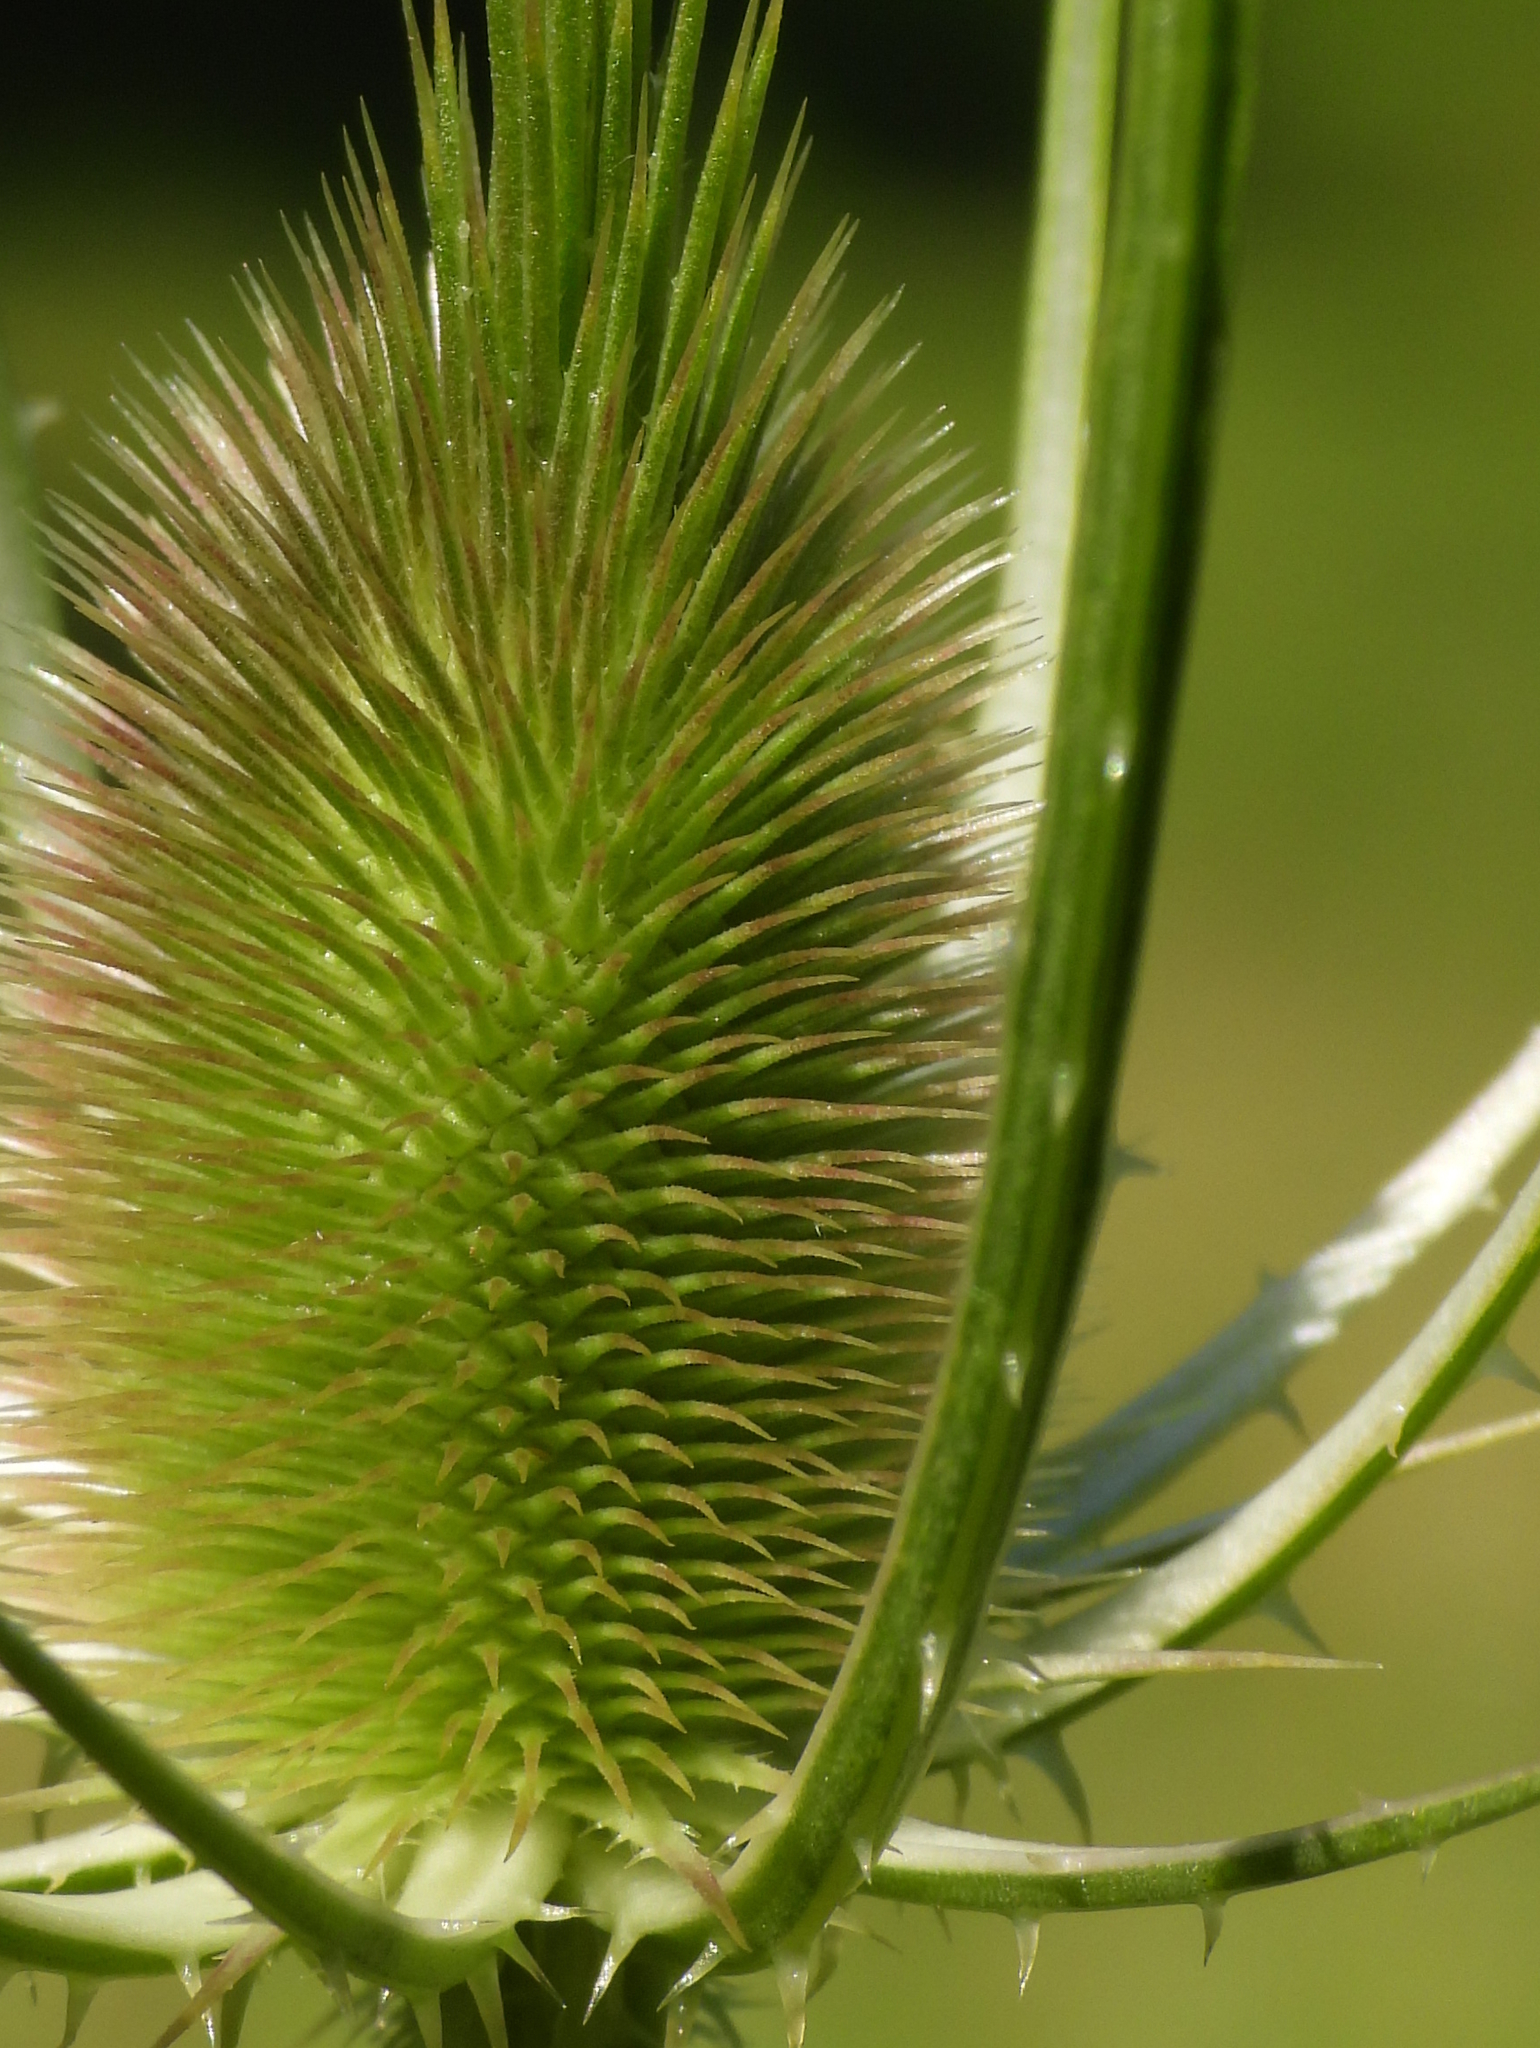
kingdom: Plantae
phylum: Tracheophyta
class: Magnoliopsida
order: Dipsacales
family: Caprifoliaceae
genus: Dipsacus
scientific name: Dipsacus fullonum
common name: Teasel
